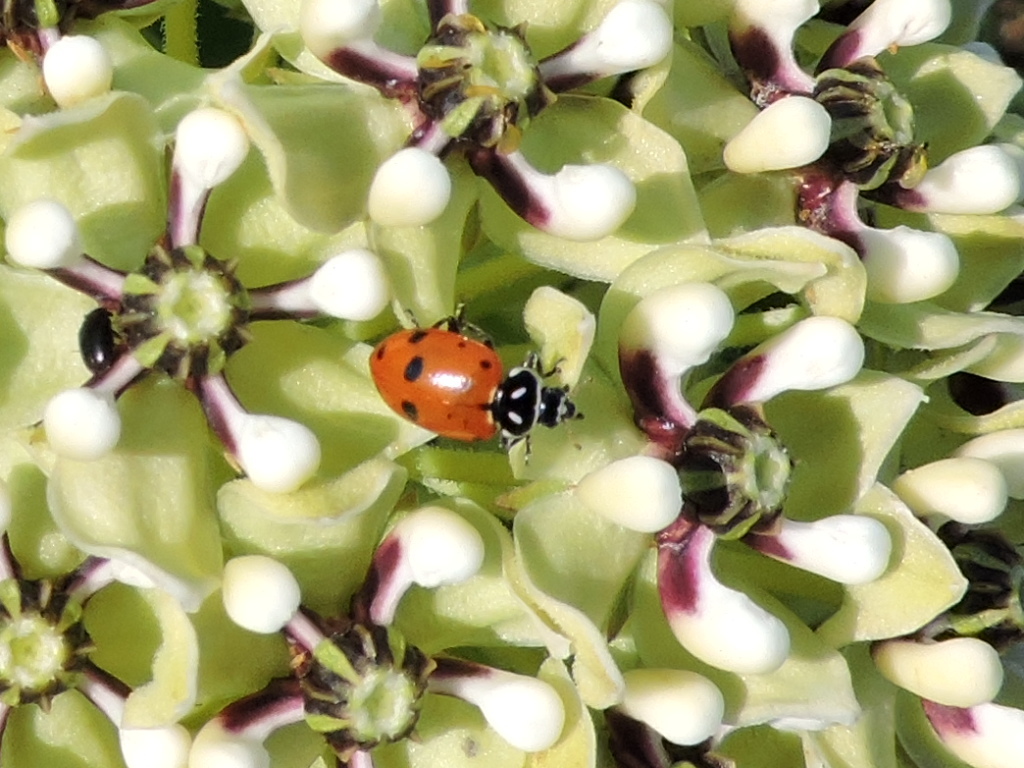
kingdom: Animalia
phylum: Arthropoda
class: Insecta
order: Coleoptera
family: Coccinellidae
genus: Hippodamia
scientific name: Hippodamia convergens
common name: Convergent lady beetle
